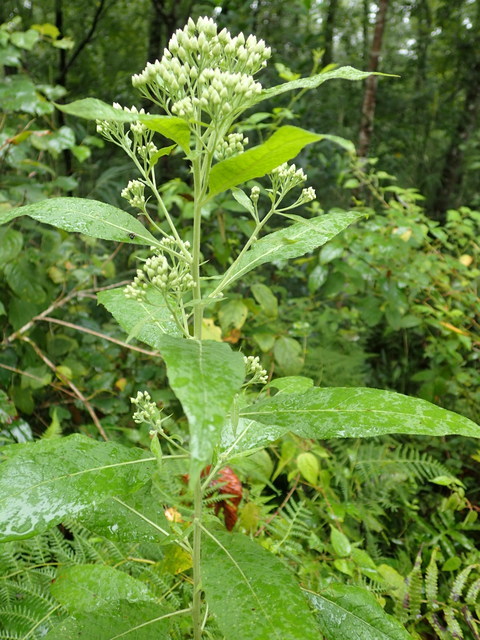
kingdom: Plantae
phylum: Tracheophyta
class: Magnoliopsida
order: Asterales
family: Asteraceae
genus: Pluchea
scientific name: Pluchea camphorata
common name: Camphor pluchea
